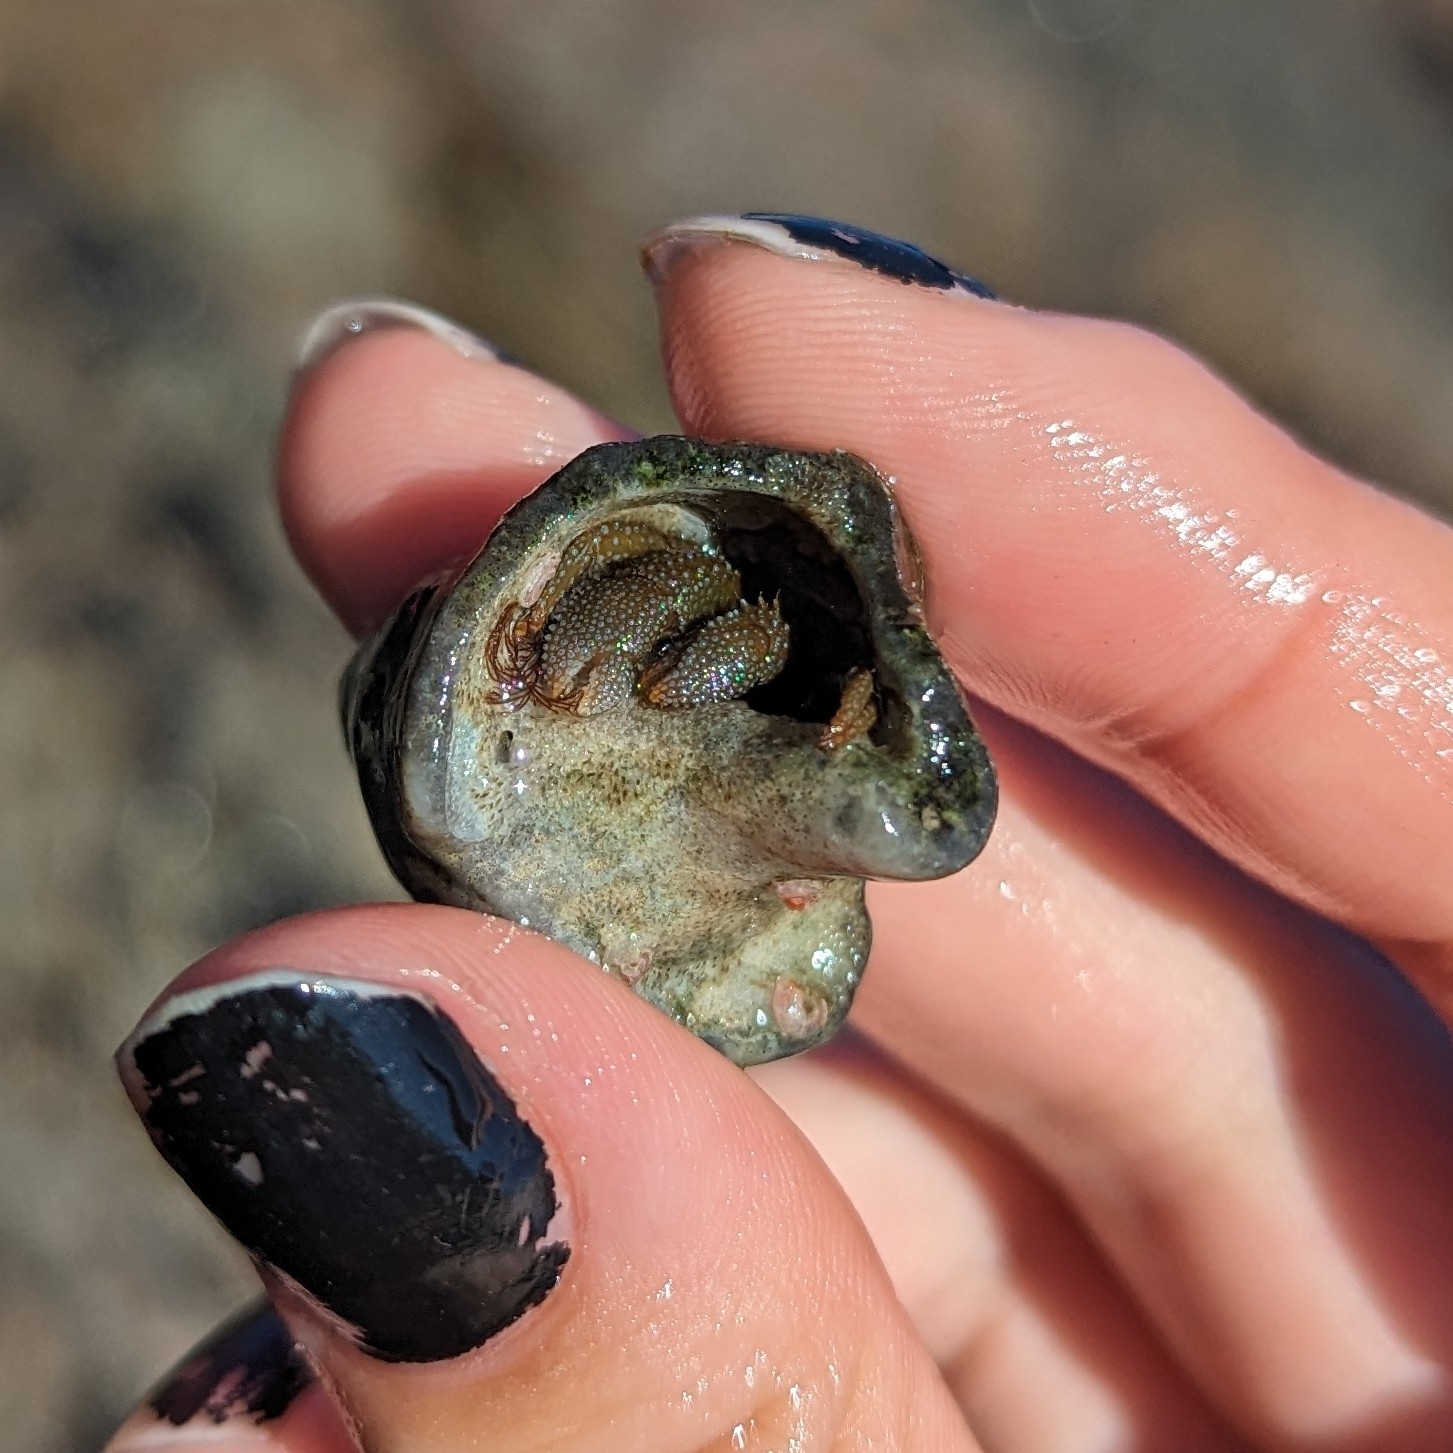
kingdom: Animalia
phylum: Arthropoda
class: Malacostraca
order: Decapoda
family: Paguridae
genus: Pagurus
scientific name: Pagurus granosimanus
